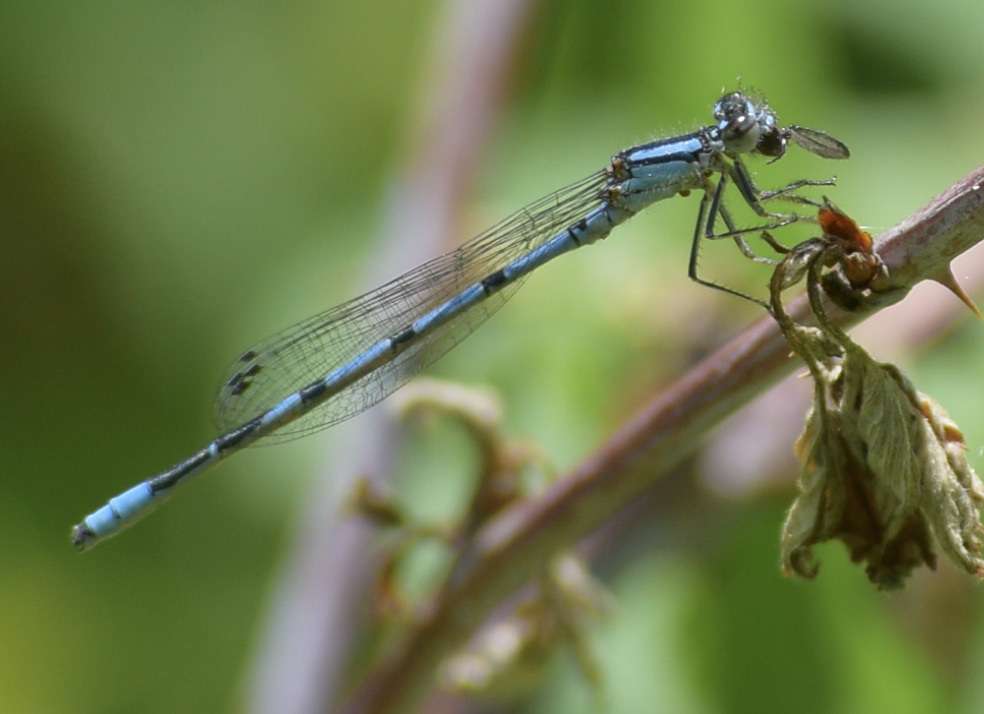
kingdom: Animalia
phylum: Arthropoda
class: Insecta
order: Odonata
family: Coenagrionidae
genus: Enallagma
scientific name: Enallagma ebrium
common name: Marsh bluet
